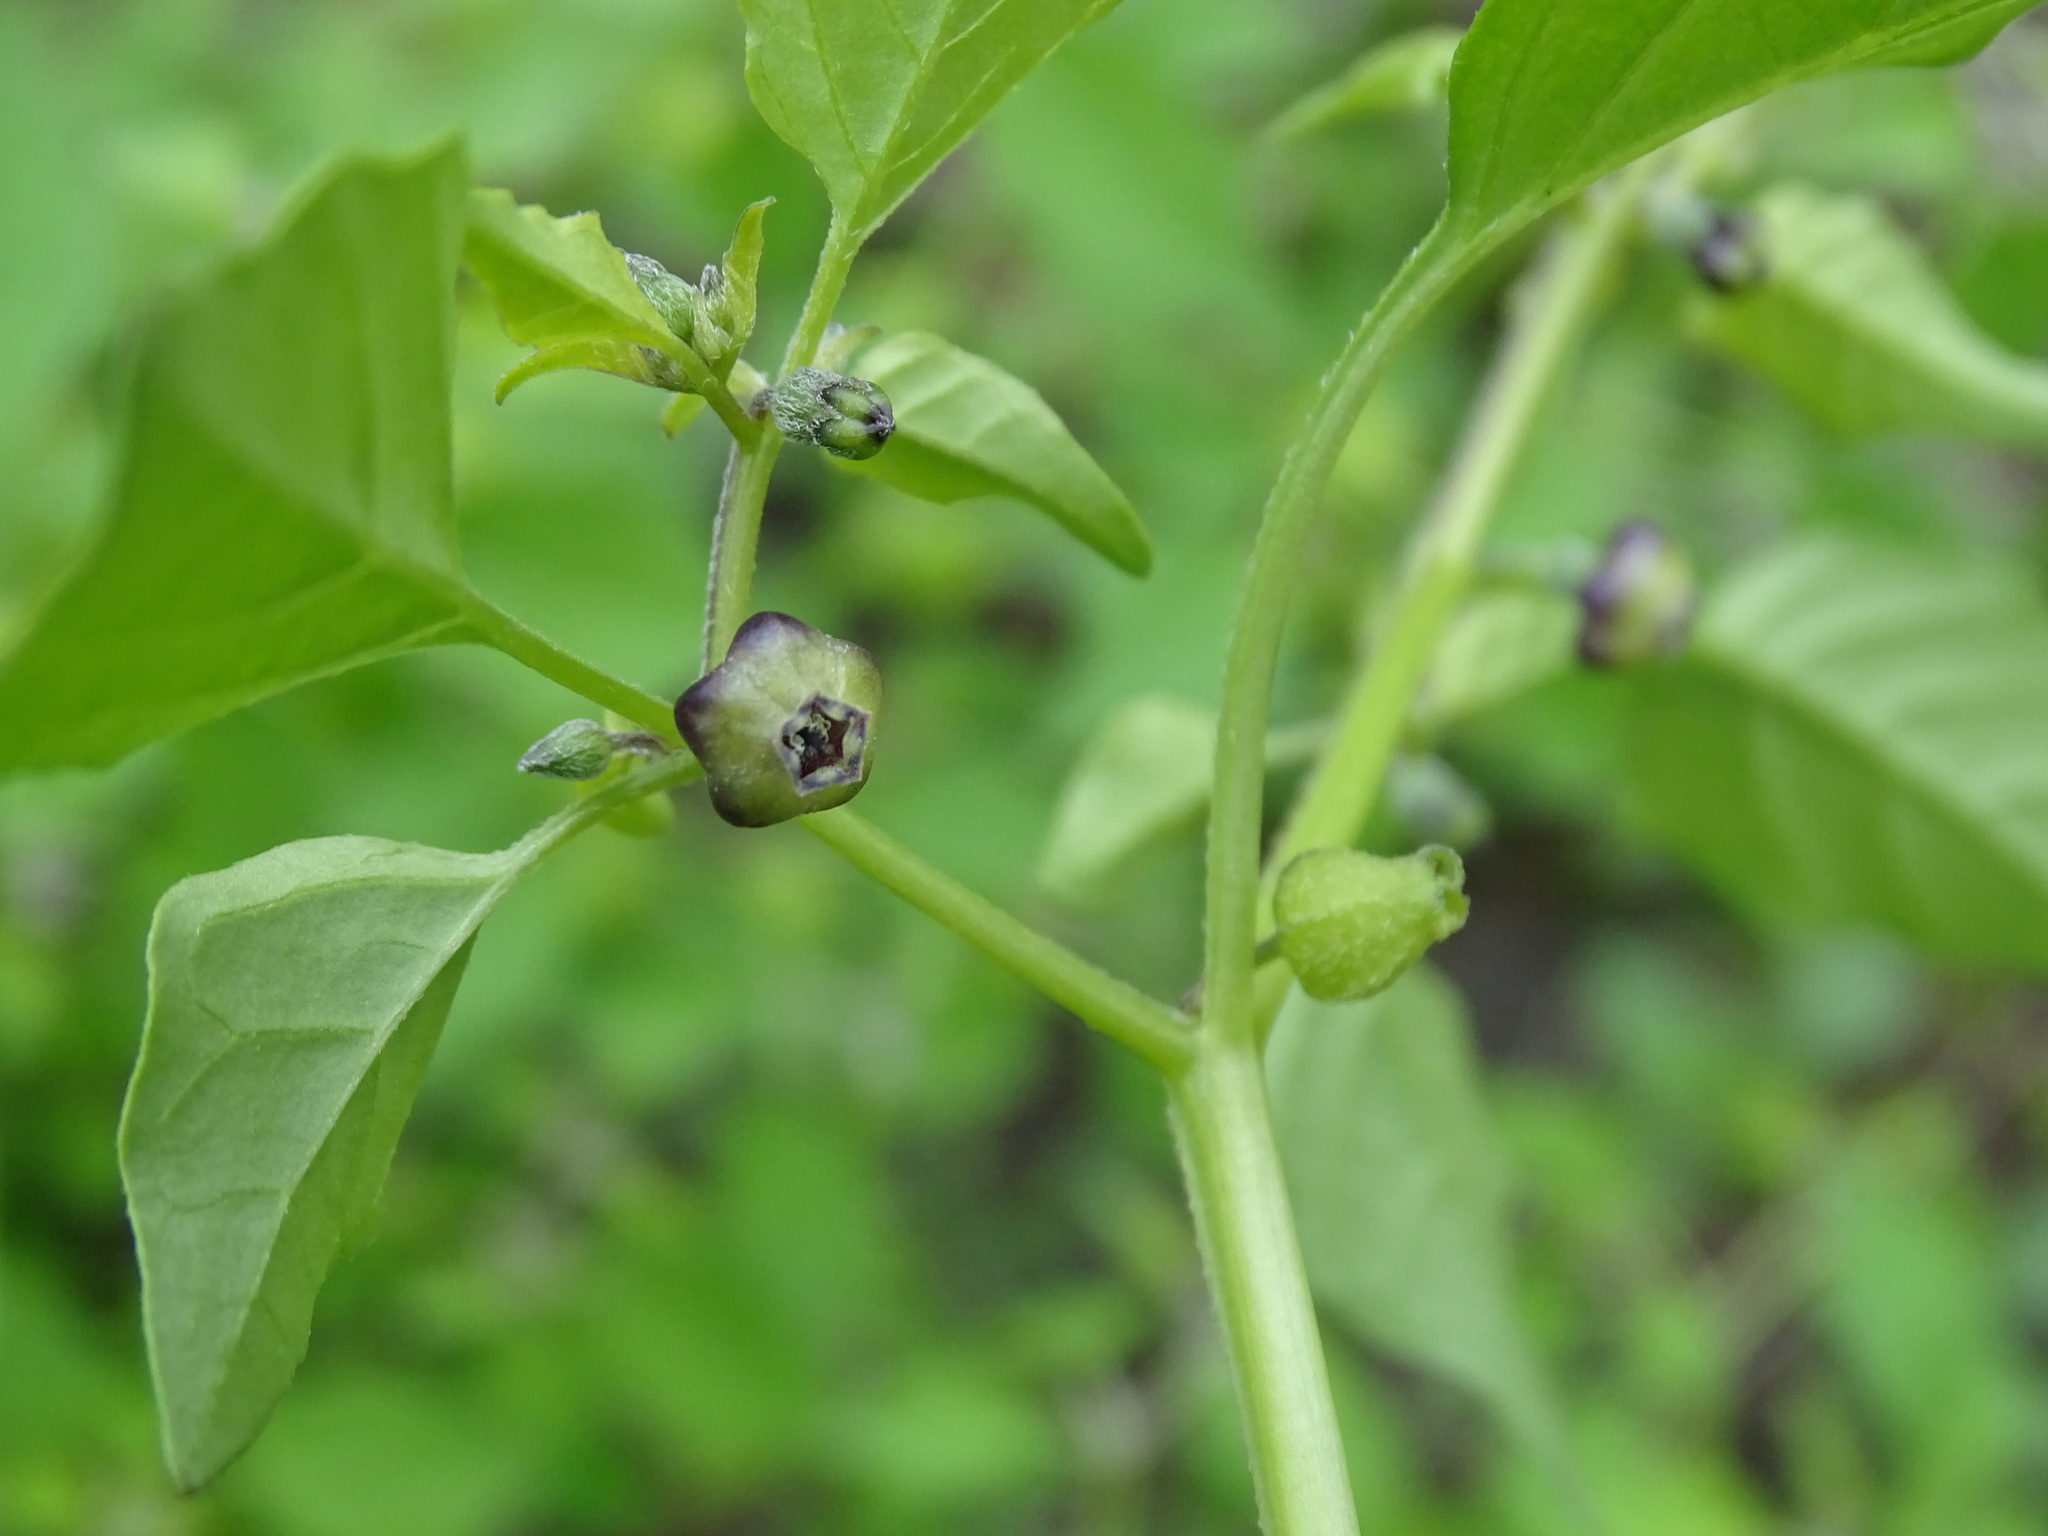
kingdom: Plantae
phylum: Tracheophyta
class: Magnoliopsida
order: Solanales
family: Solanaceae
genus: Physalis
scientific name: Physalis solanacea
